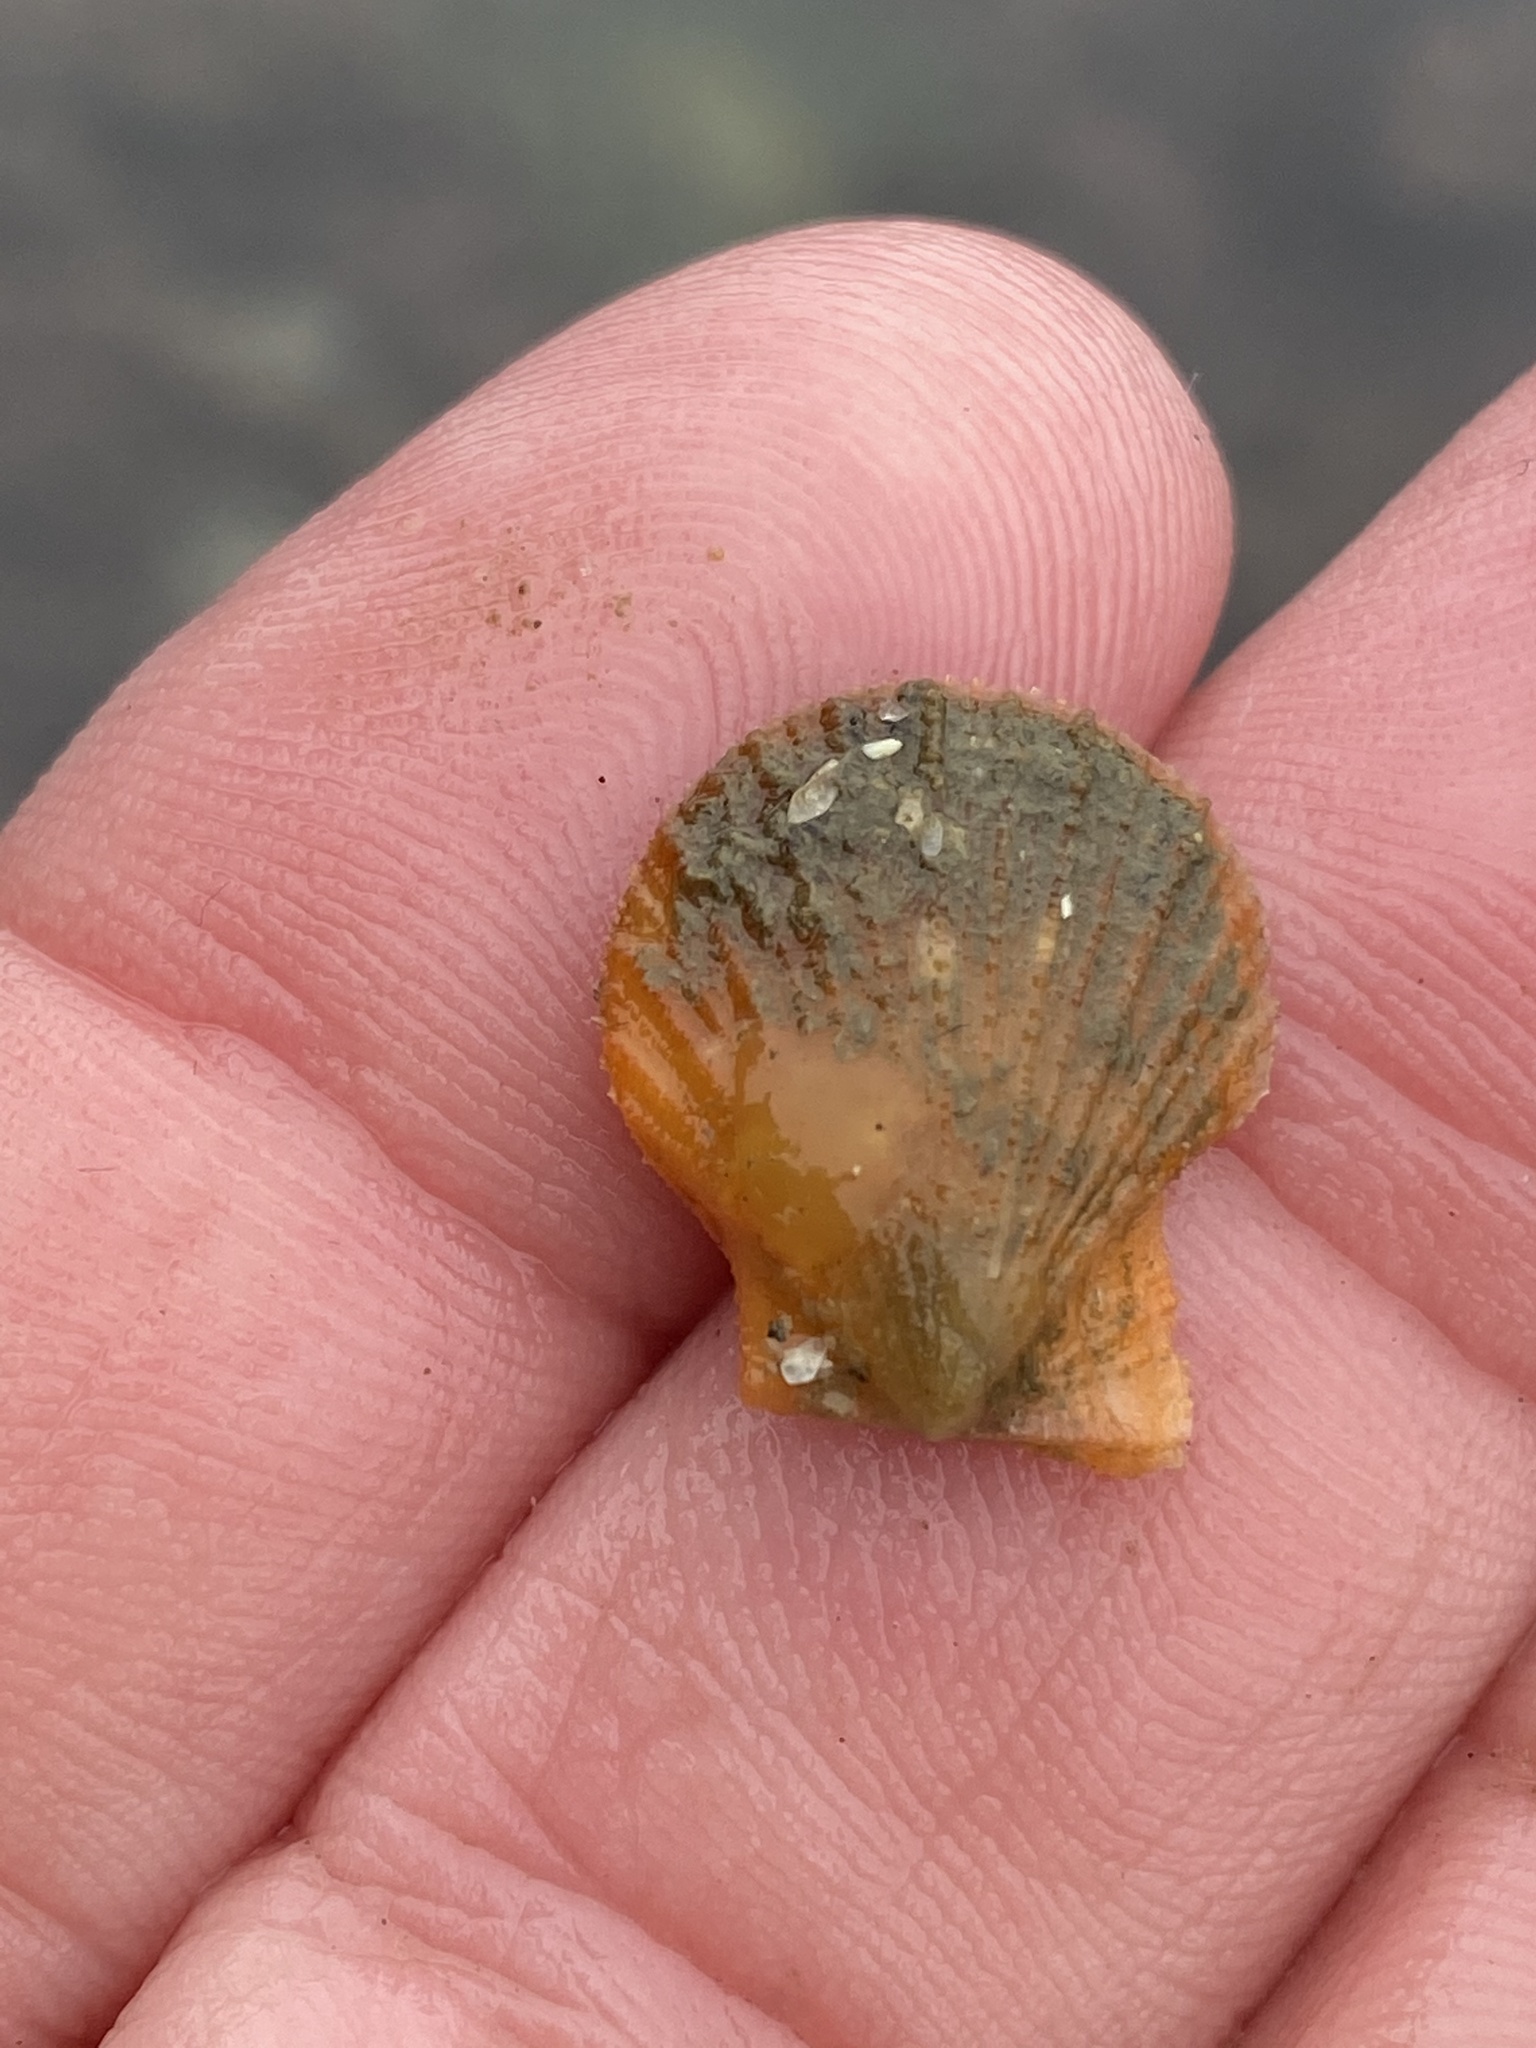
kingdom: Animalia
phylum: Mollusca
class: Bivalvia
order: Pectinida
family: Pectinidae
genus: Crassadoma
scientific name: Crassadoma gigantea
